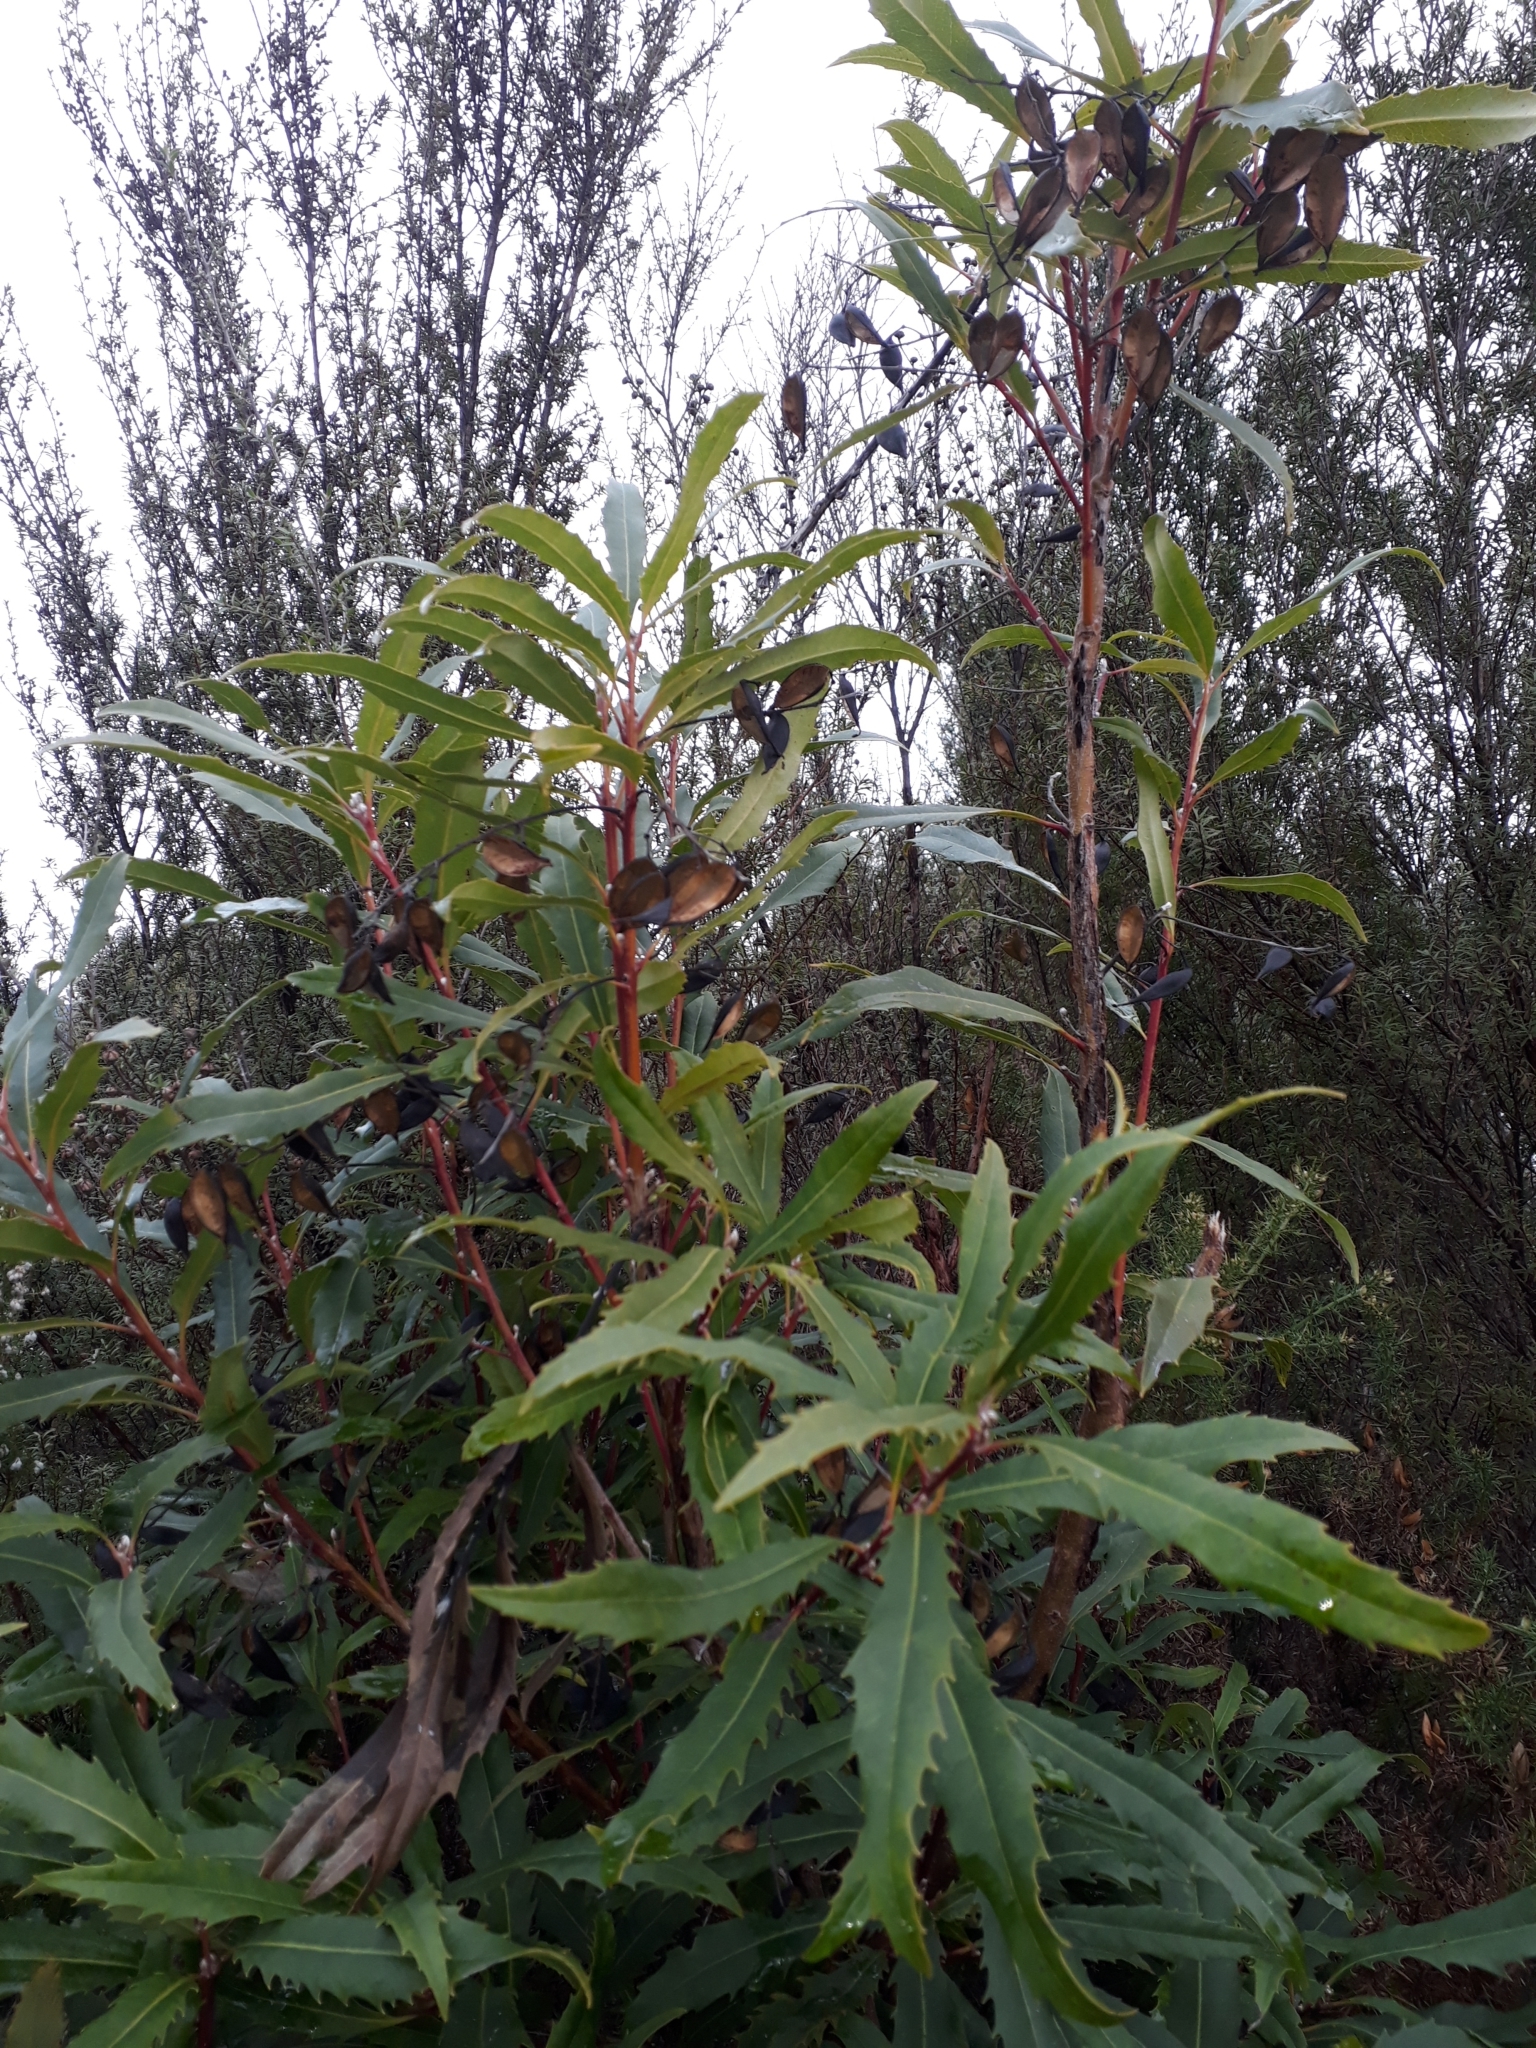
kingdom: Plantae
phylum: Tracheophyta
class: Magnoliopsida
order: Proteales
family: Proteaceae
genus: Lomatia
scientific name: Lomatia fraseri
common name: Forest lomatia
